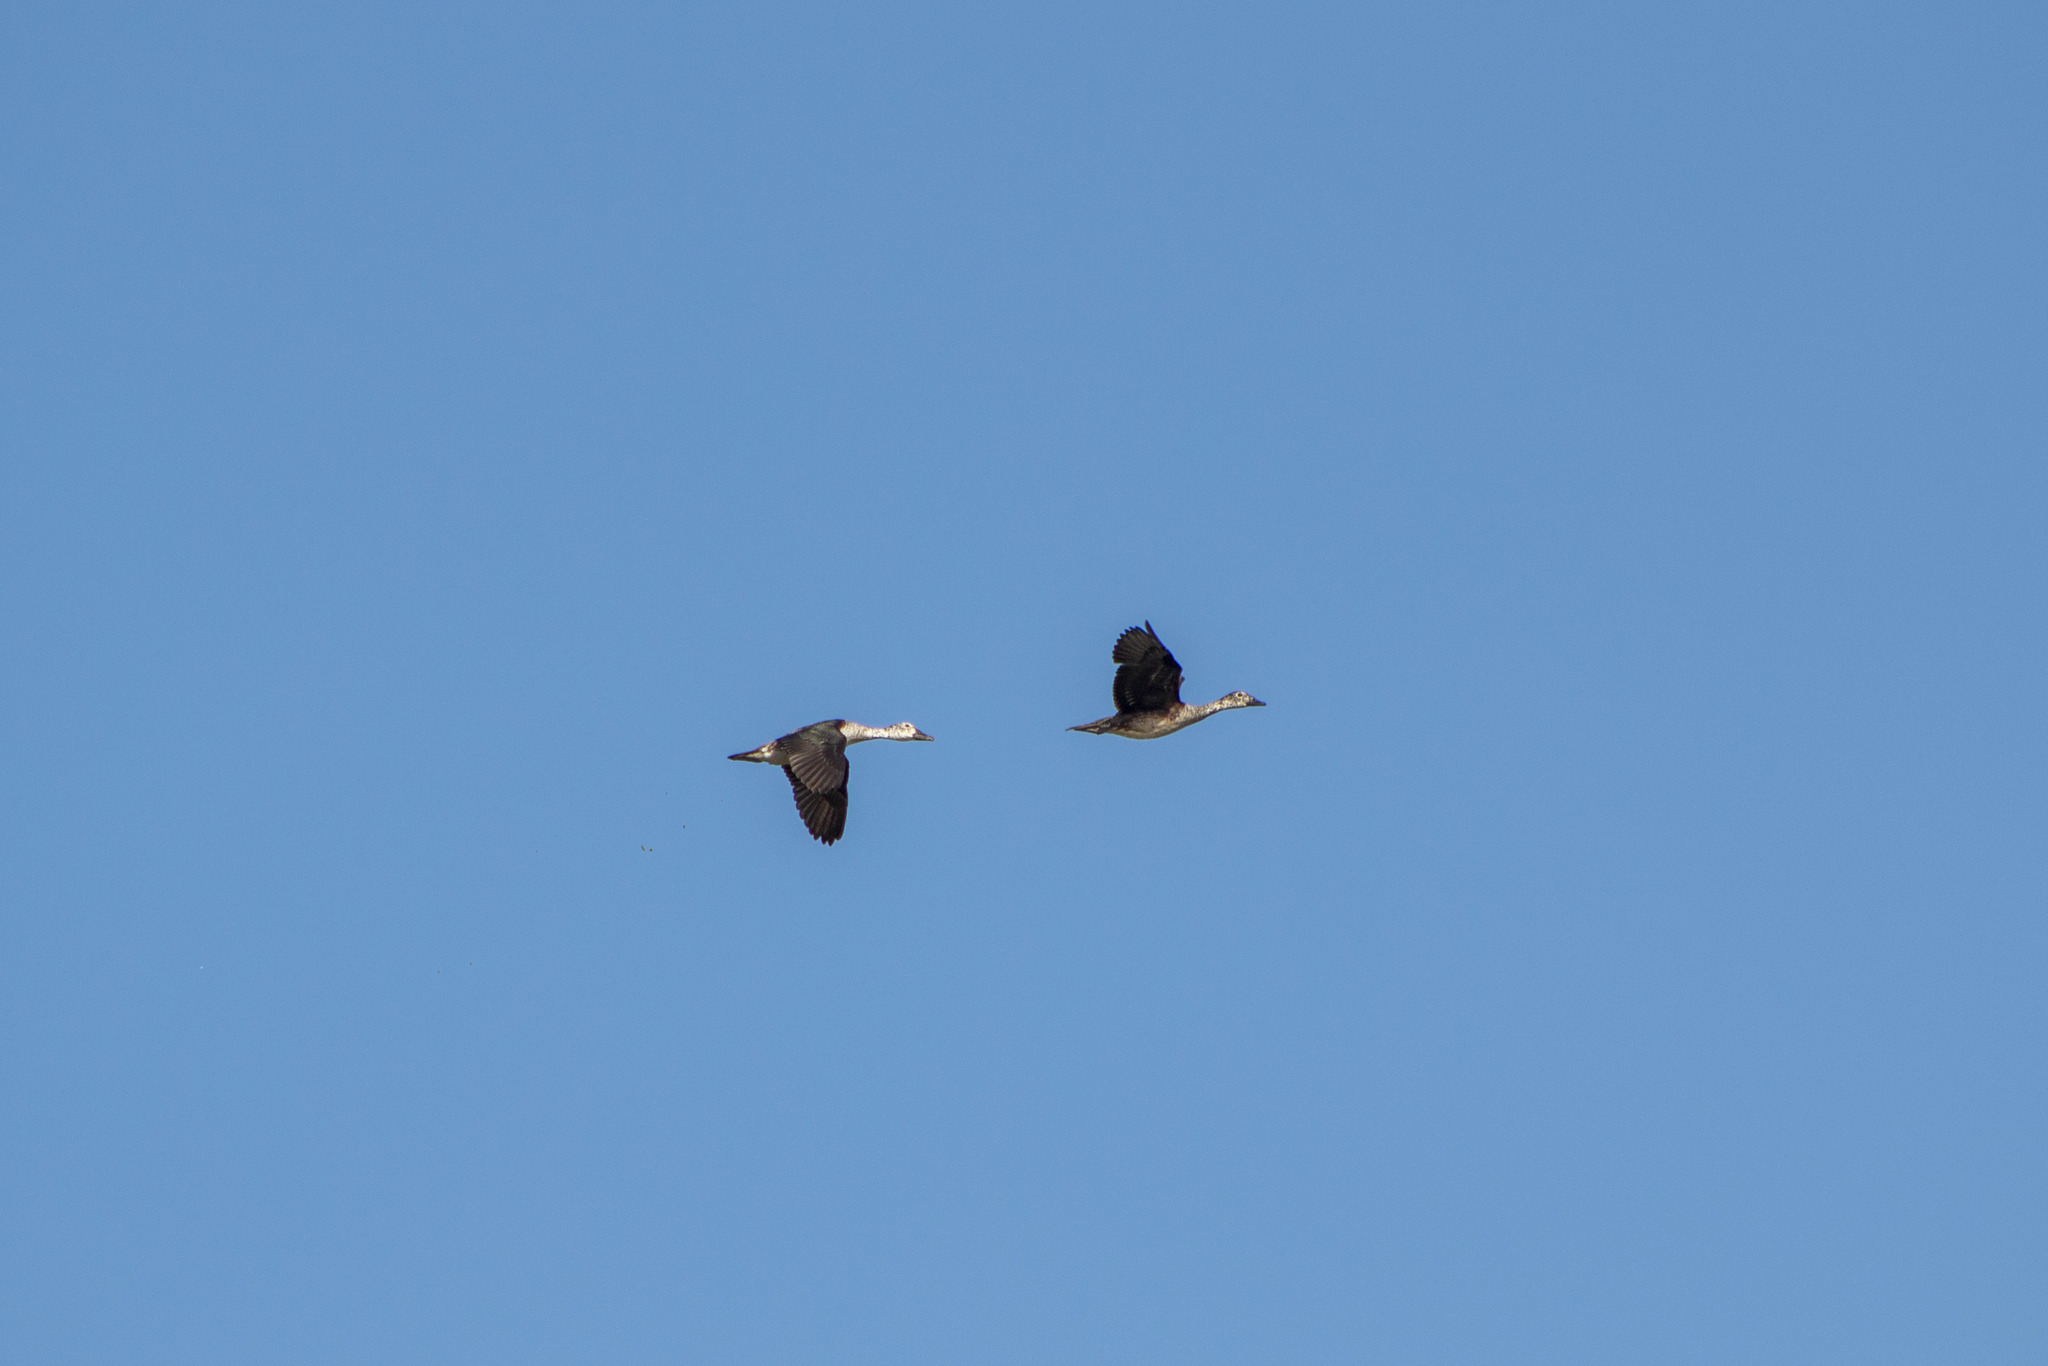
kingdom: Animalia
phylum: Chordata
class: Aves
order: Anseriformes
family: Anatidae
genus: Sarkidiornis
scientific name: Sarkidiornis sylvicola
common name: Comb duck
